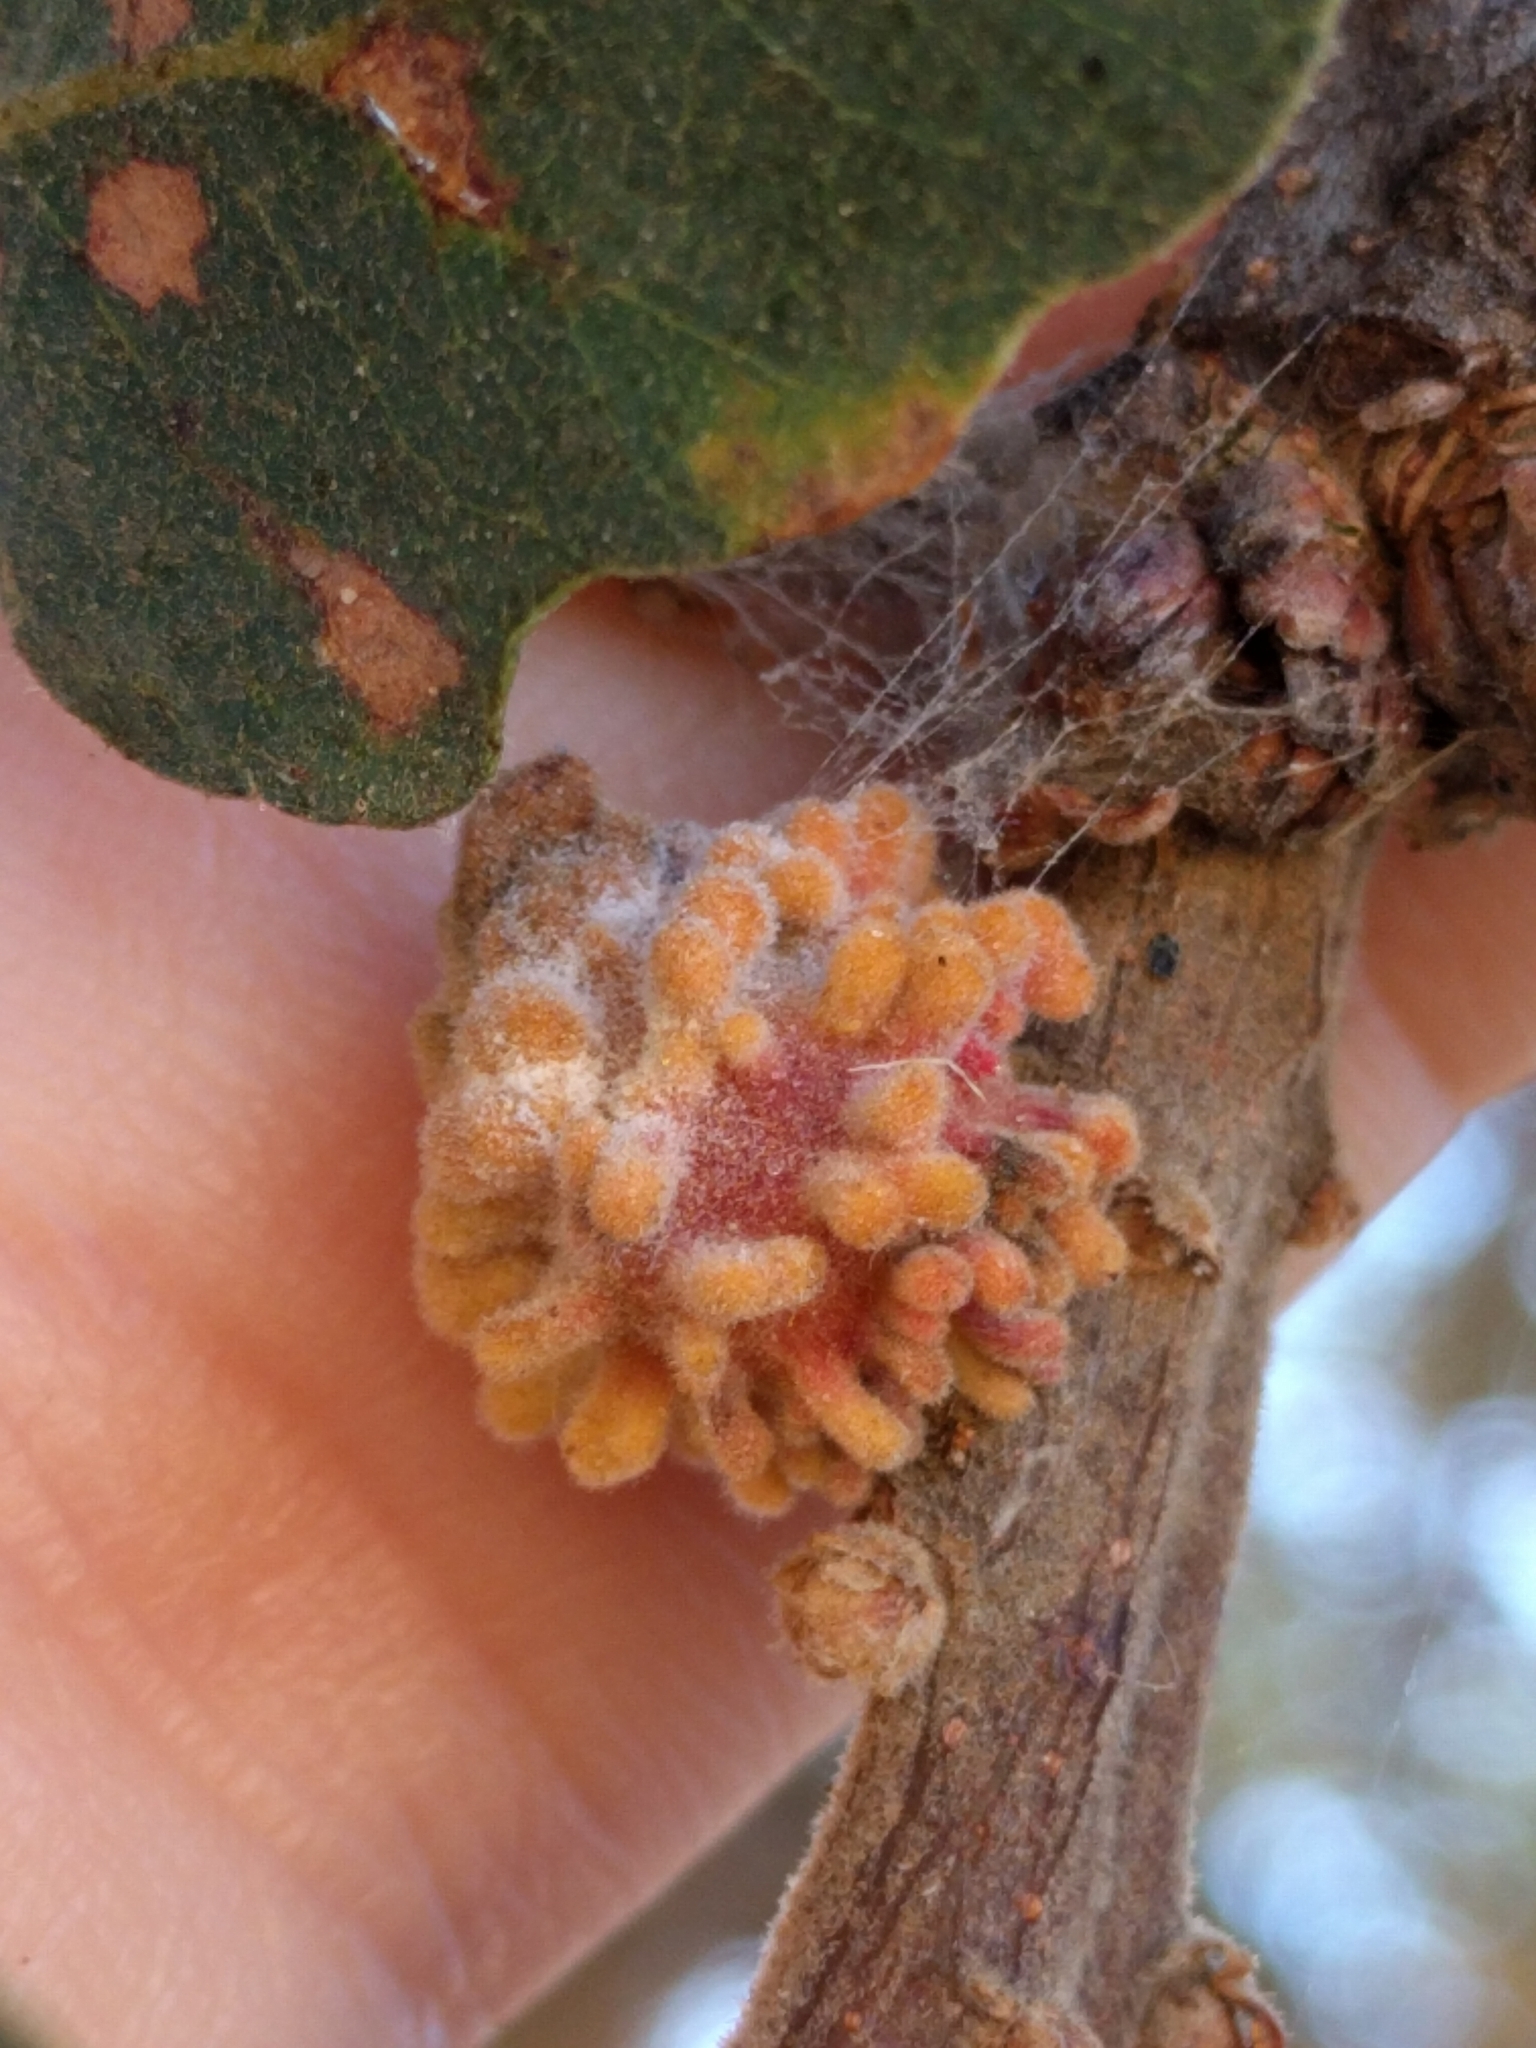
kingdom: Animalia
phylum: Arthropoda
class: Insecta
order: Hymenoptera
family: Cynipidae
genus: Burnettweldia
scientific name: Burnettweldia
